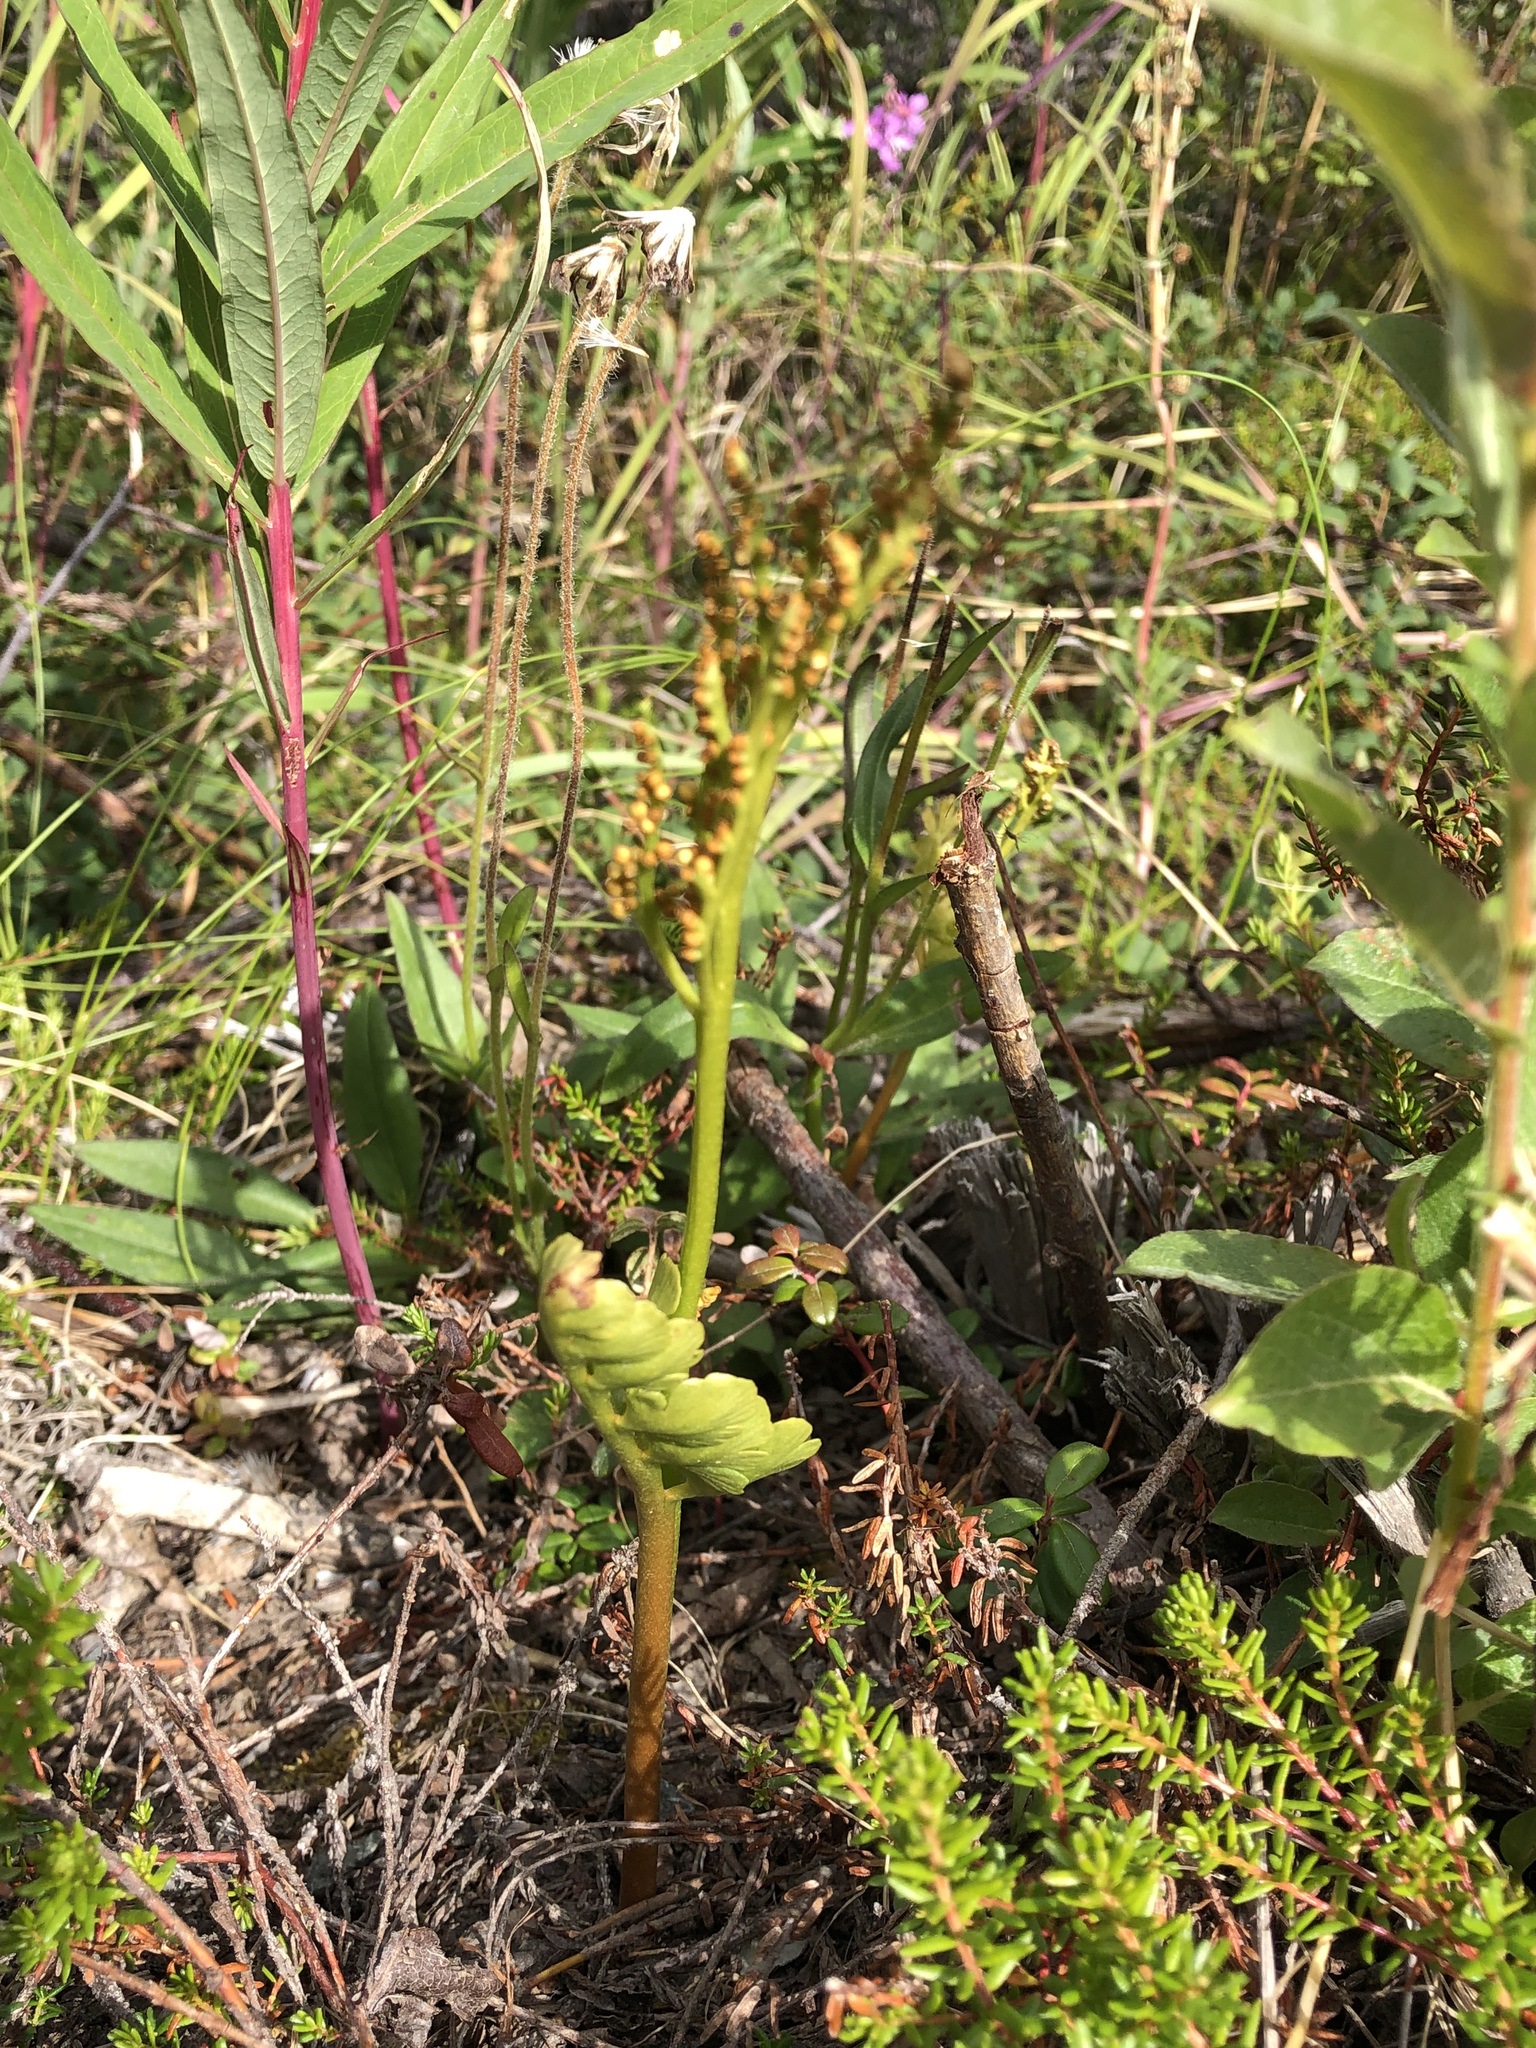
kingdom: Plantae
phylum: Tracheophyta
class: Polypodiopsida
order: Ophioglossales
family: Ophioglossaceae
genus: Botrychium
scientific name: Botrychium alaskense
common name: Alaska moonwort
